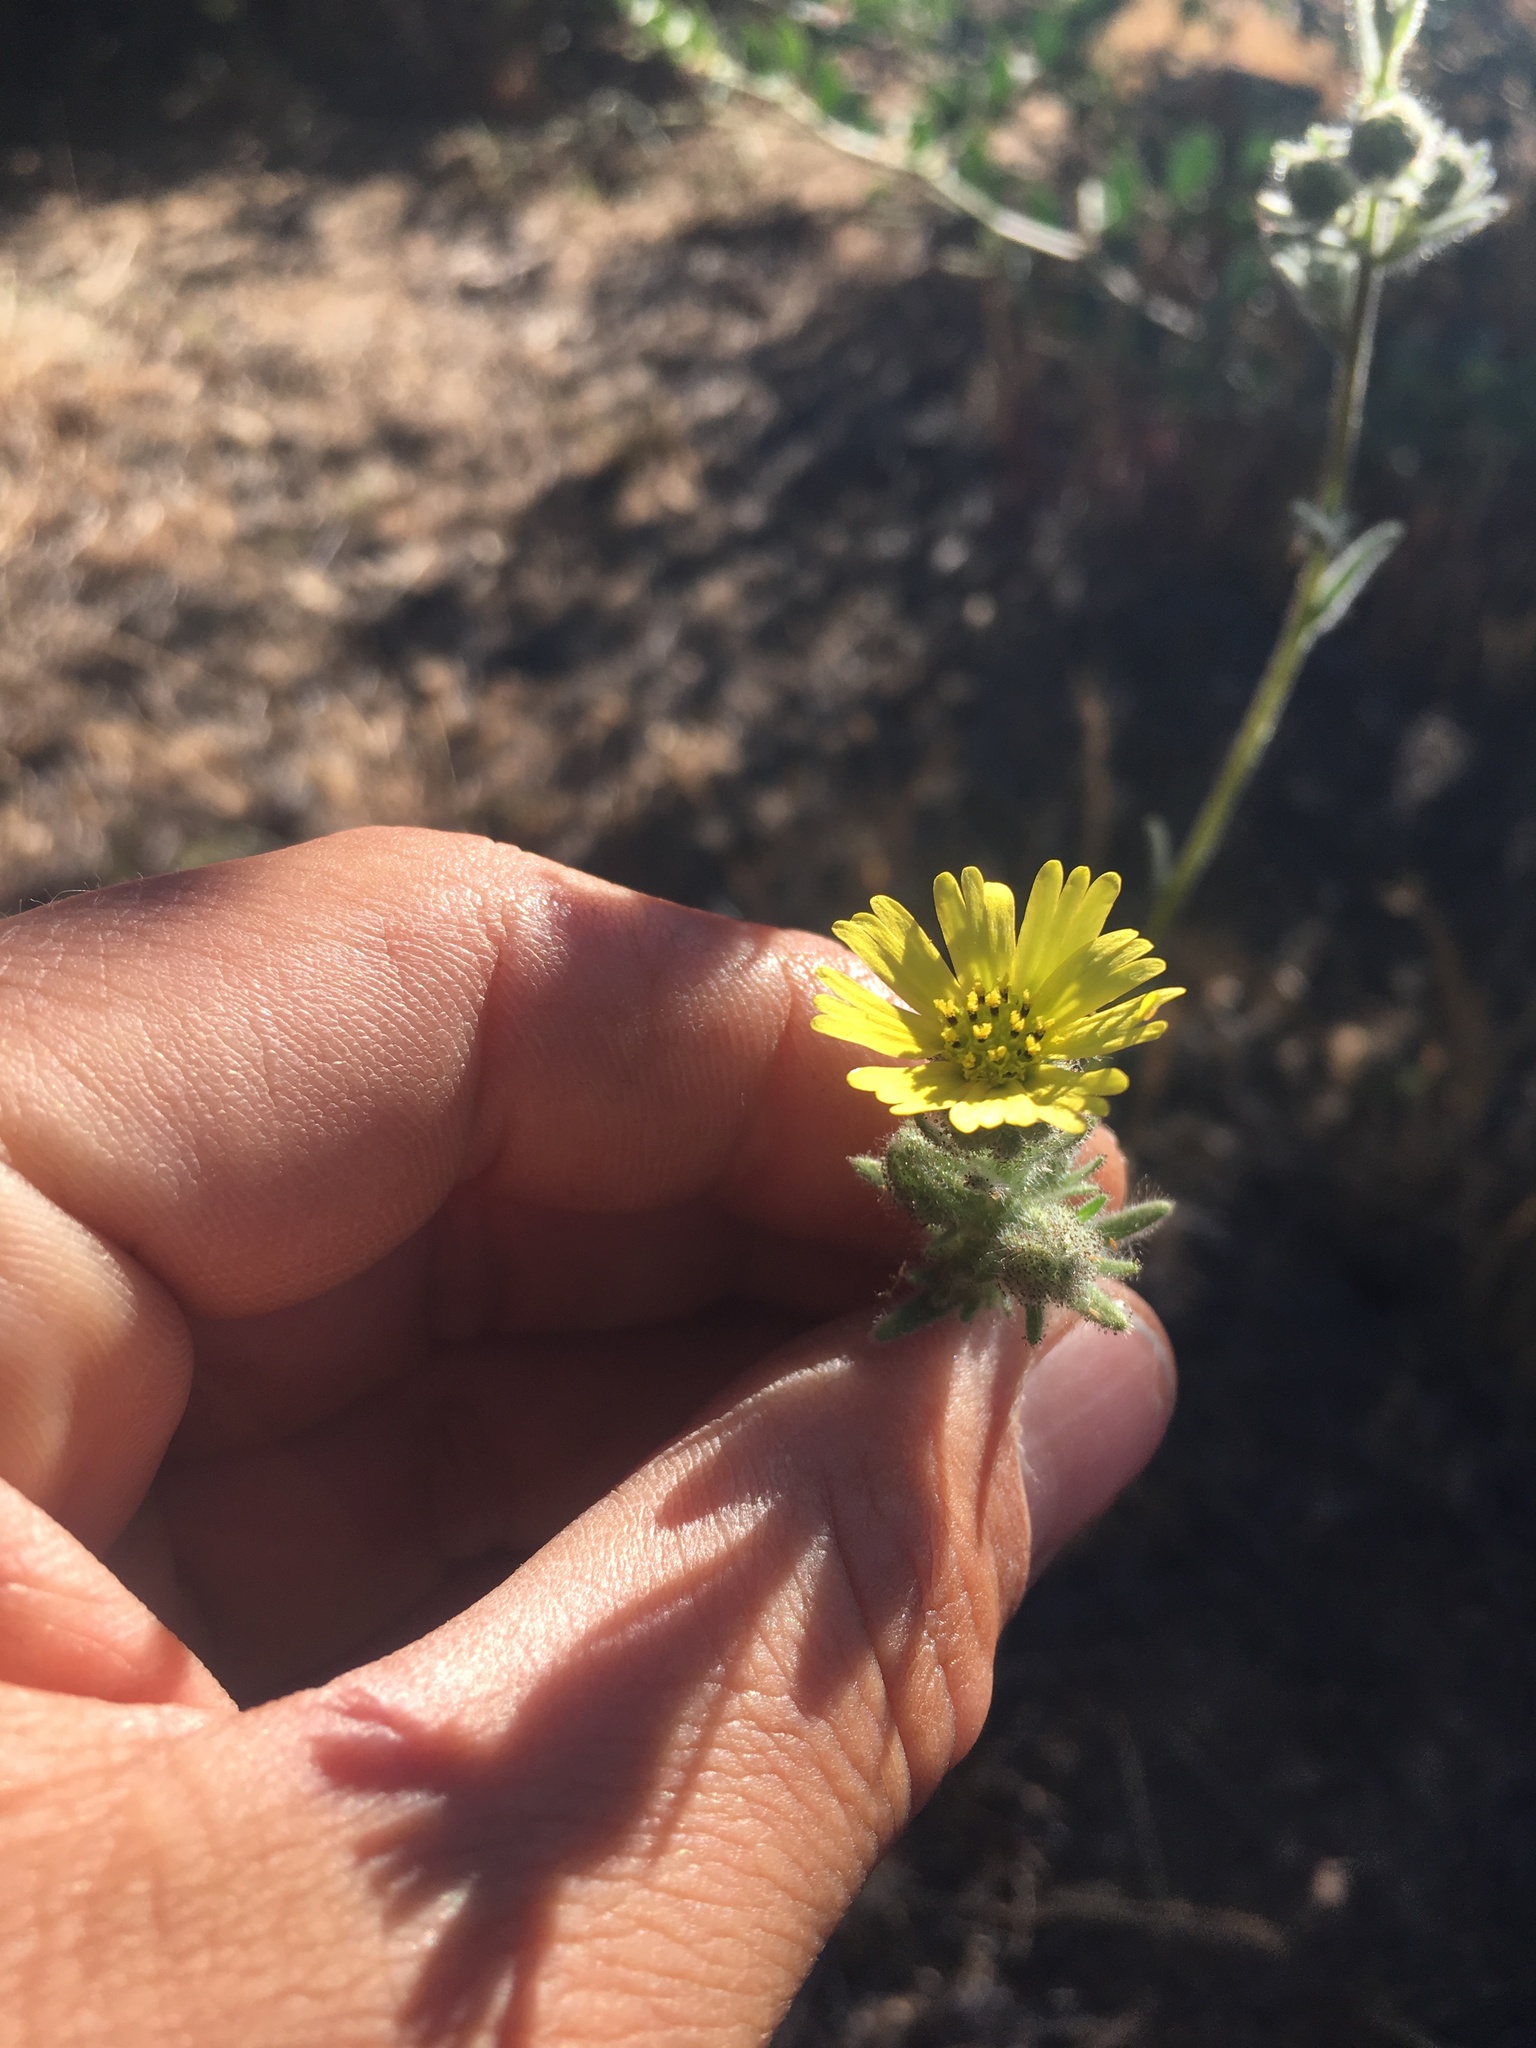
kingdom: Plantae
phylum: Tracheophyta
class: Magnoliopsida
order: Asterales
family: Asteraceae
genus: Madia
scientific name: Madia gracilis
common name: Grassy tarweed
